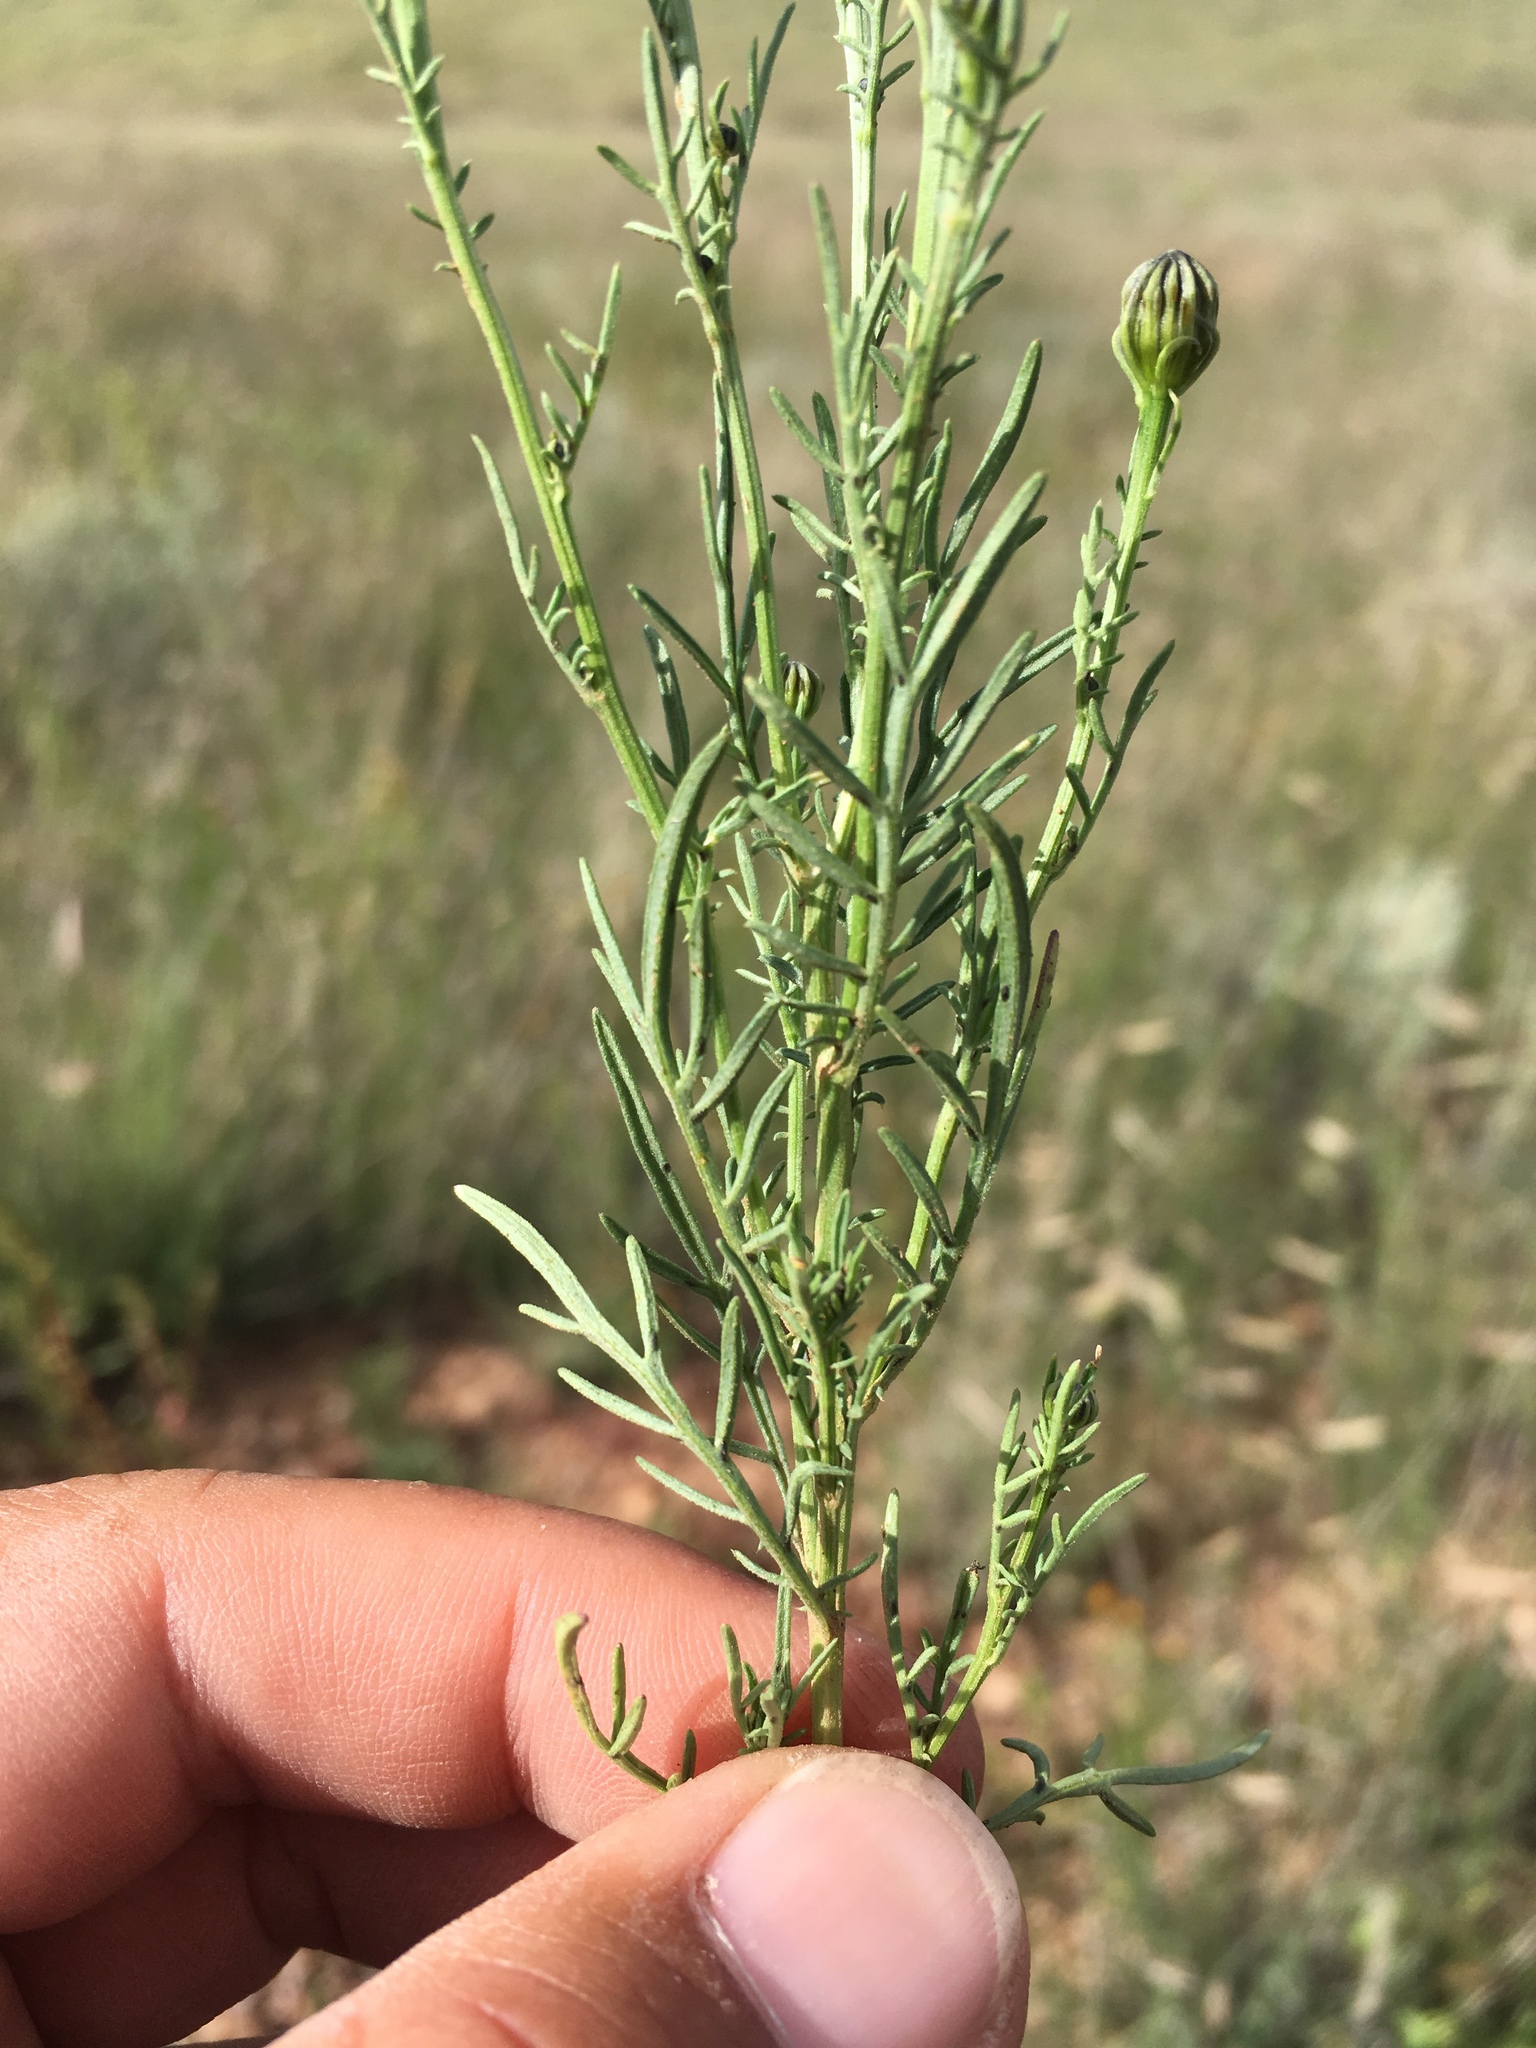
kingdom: Plantae
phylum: Tracheophyta
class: Magnoliopsida
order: Asterales
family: Asteraceae
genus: Adenophyllum
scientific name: Adenophyllum wrightii
